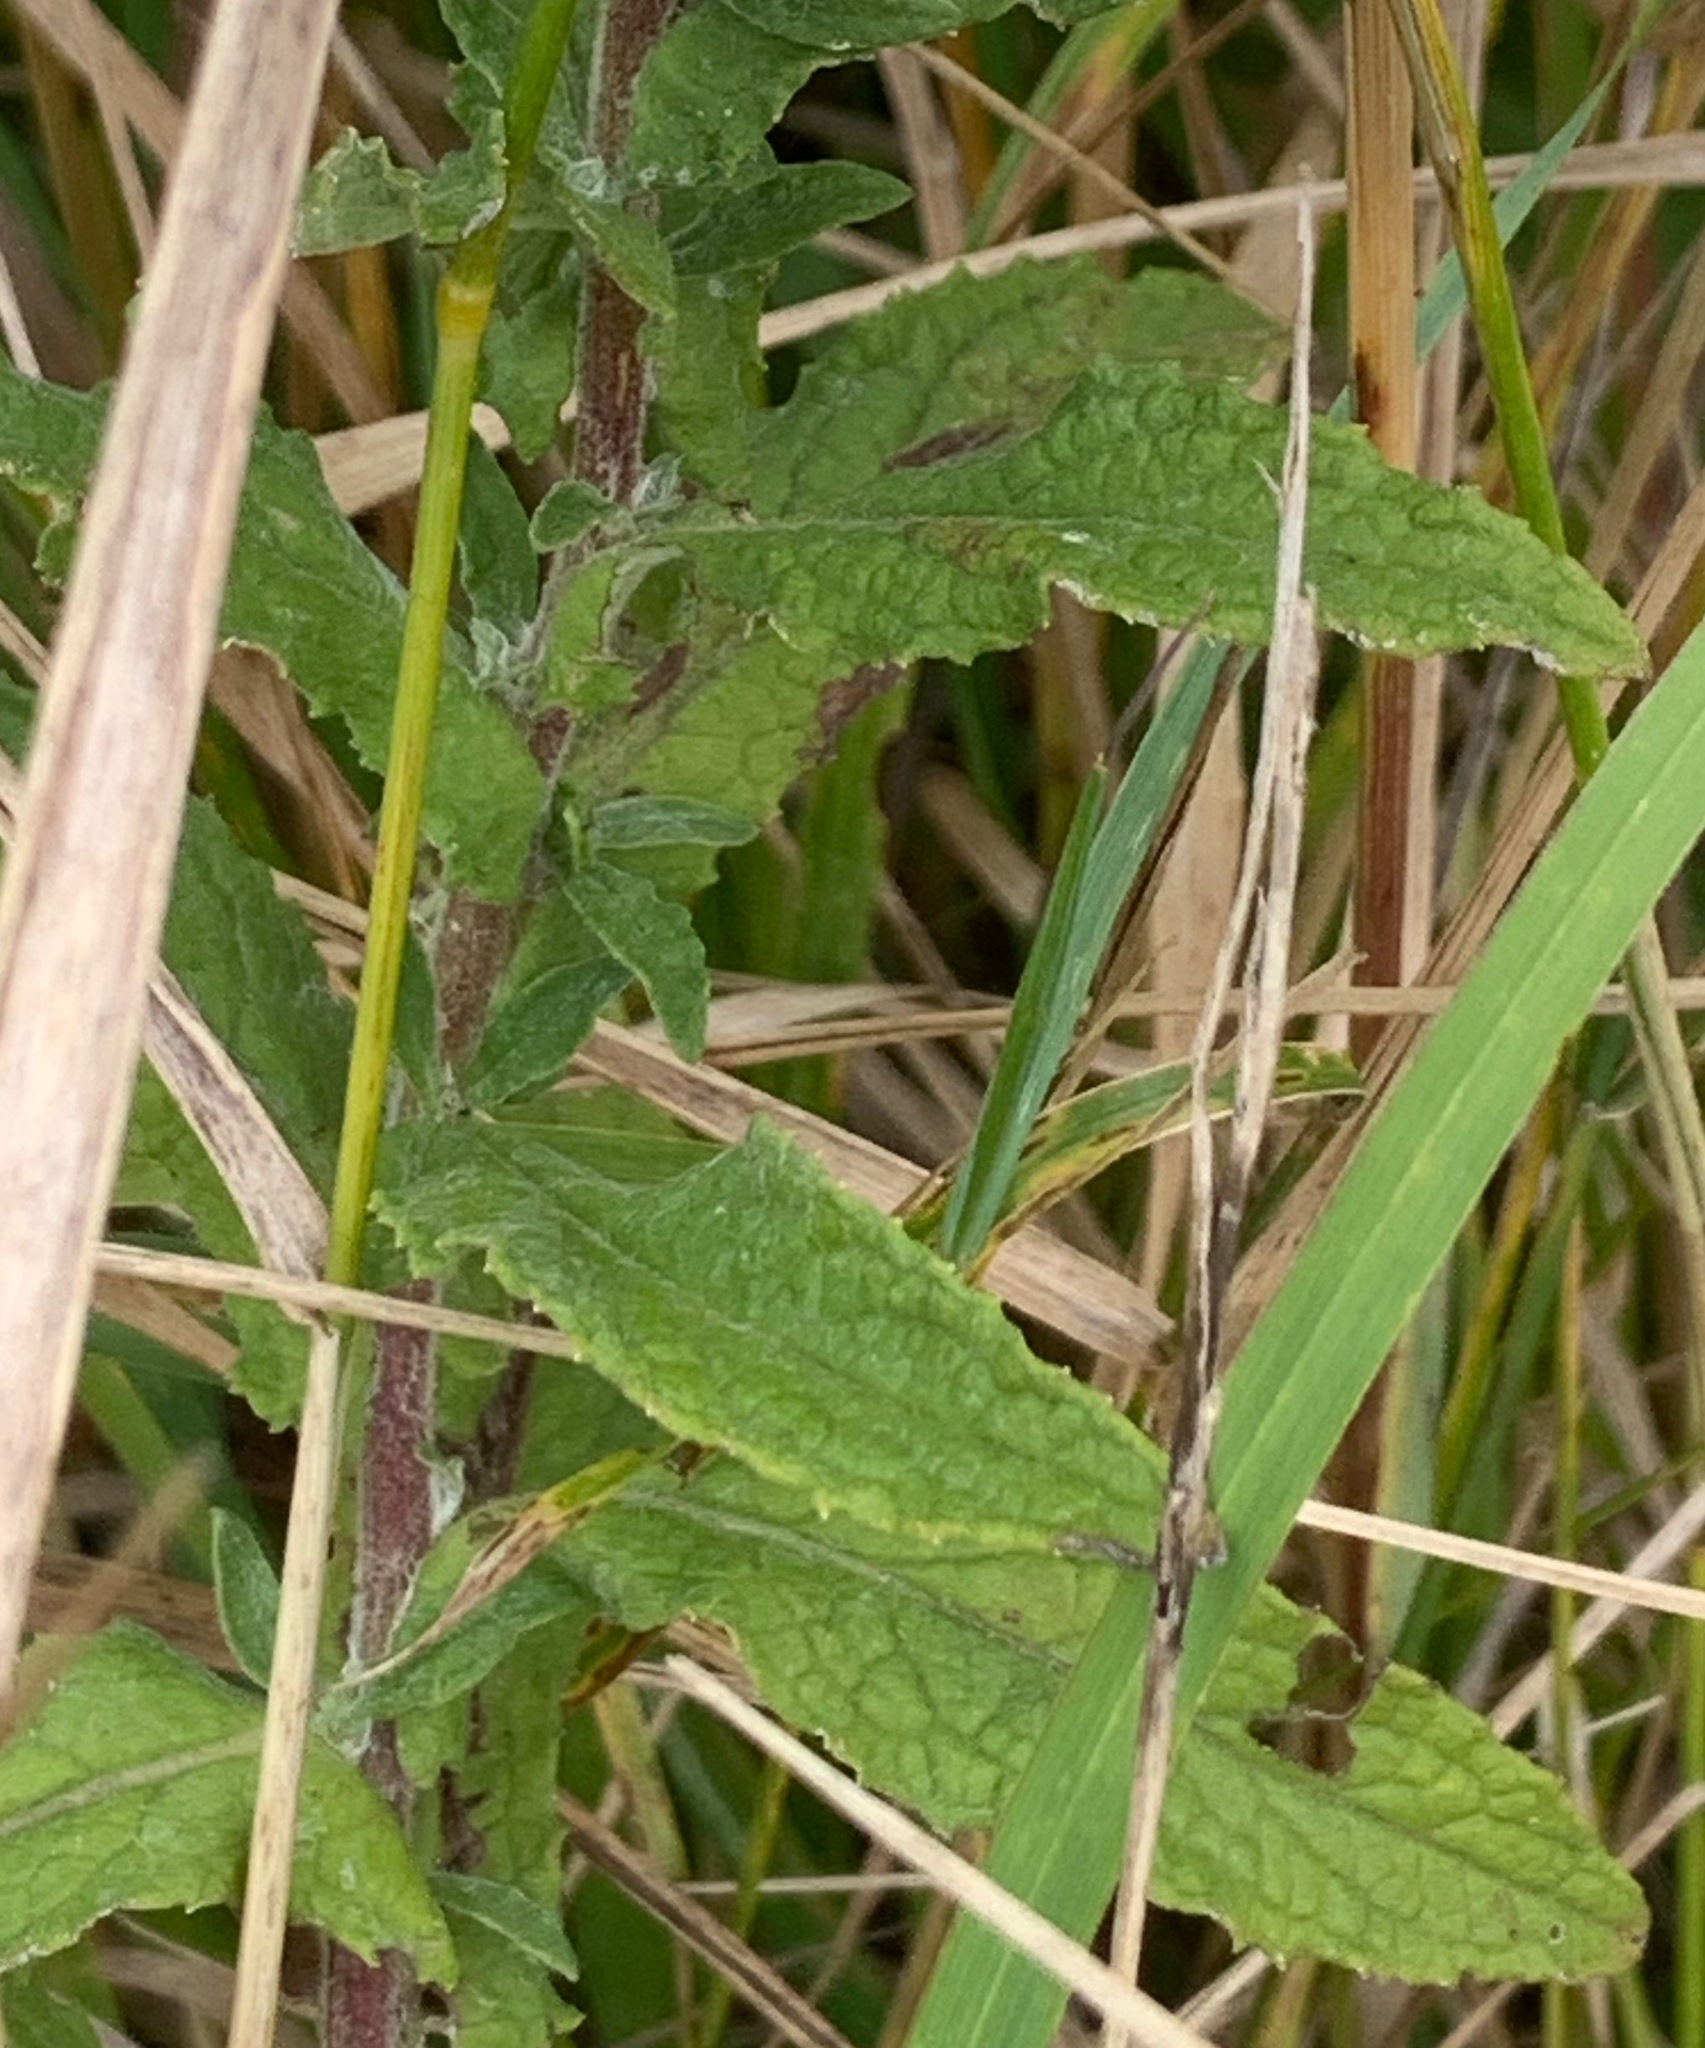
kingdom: Plantae
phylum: Tracheophyta
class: Magnoliopsida
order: Asterales
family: Asteraceae
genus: Pulicaria
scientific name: Pulicaria dysenterica
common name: Common fleabane
